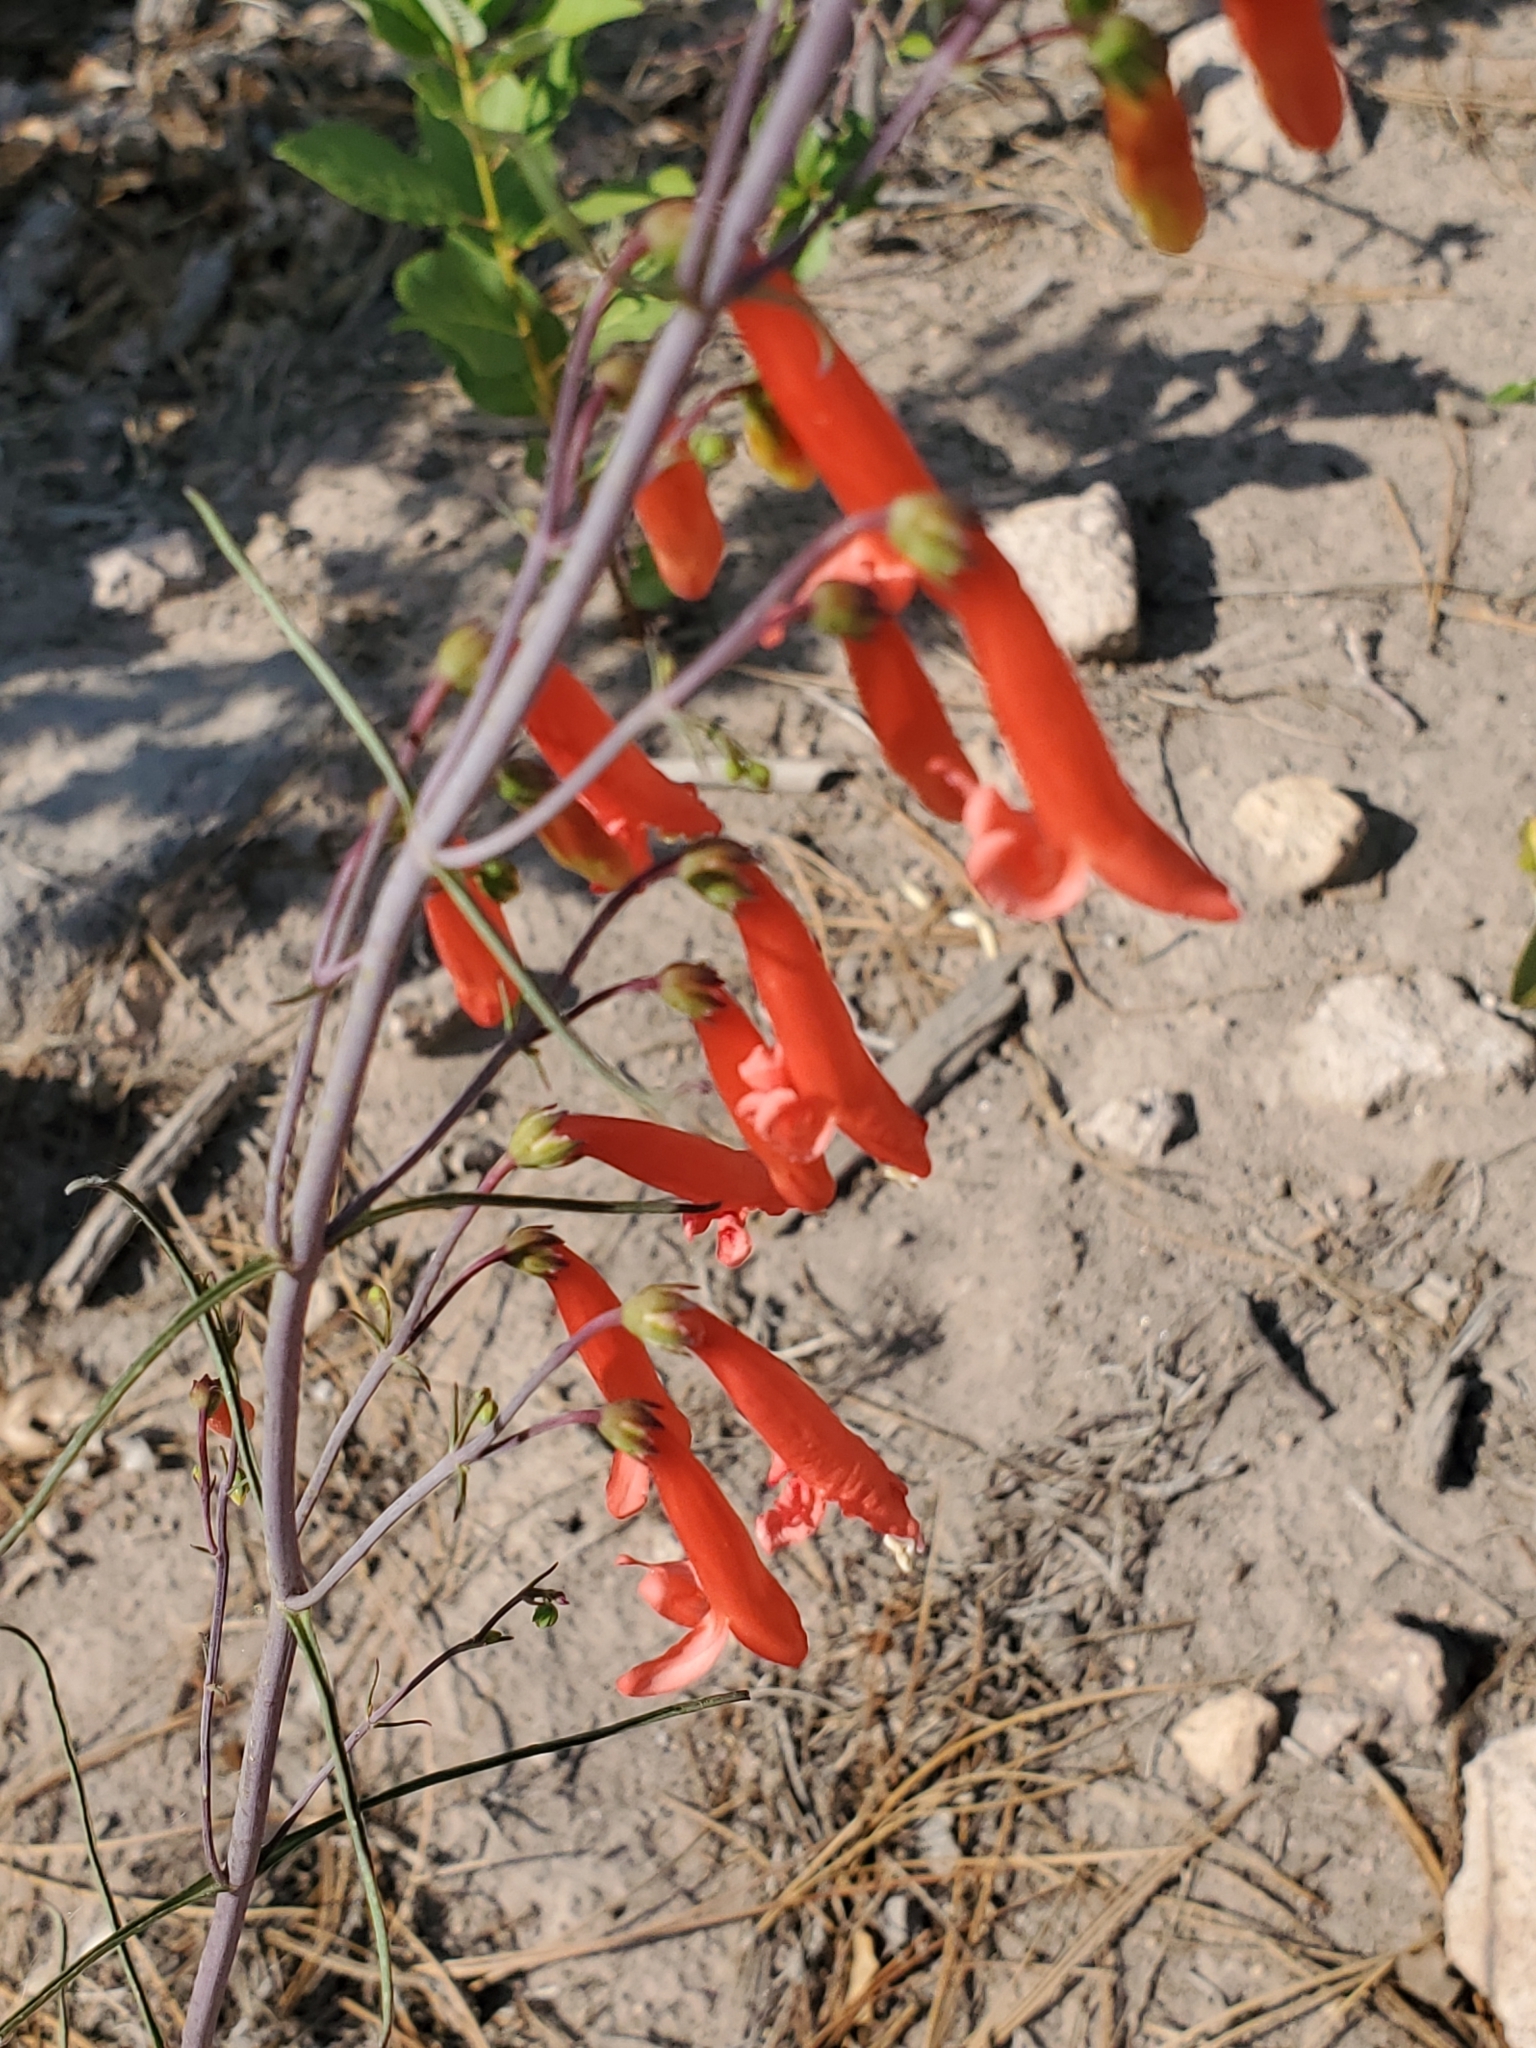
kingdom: Plantae
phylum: Tracheophyta
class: Magnoliopsida
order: Lamiales
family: Plantaginaceae
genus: Penstemon
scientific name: Penstemon barbatus
